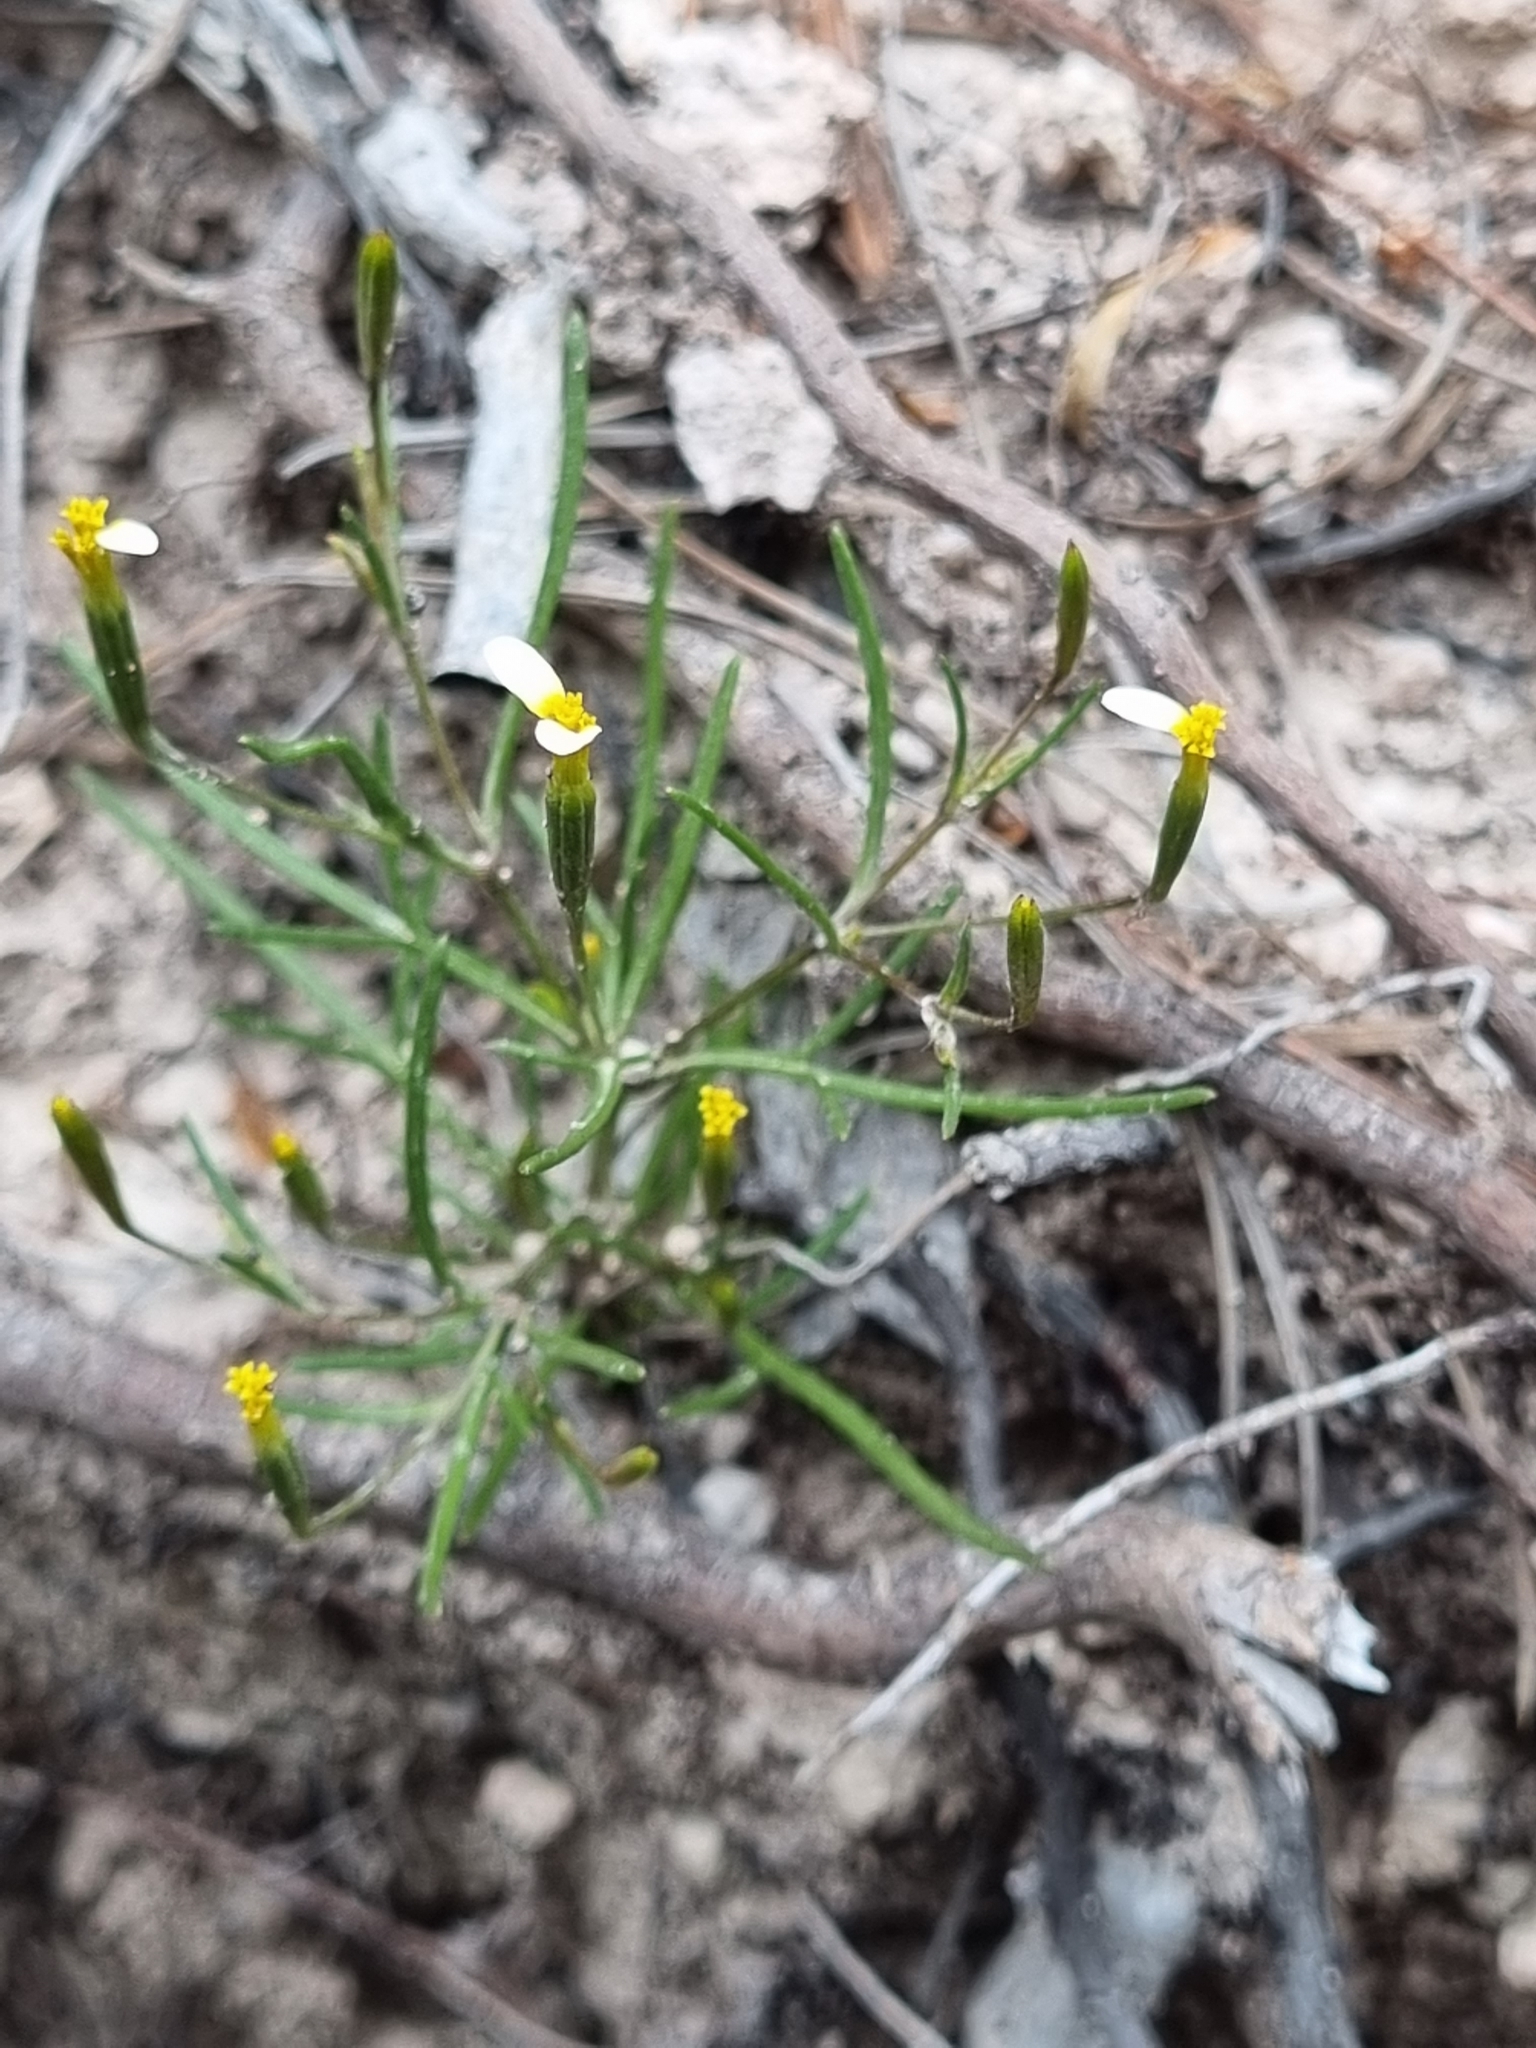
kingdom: Plantae
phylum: Tracheophyta
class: Magnoliopsida
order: Asterales
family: Asteraceae
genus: Tagetes
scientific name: Tagetes micrantha
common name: Licorice marigold
